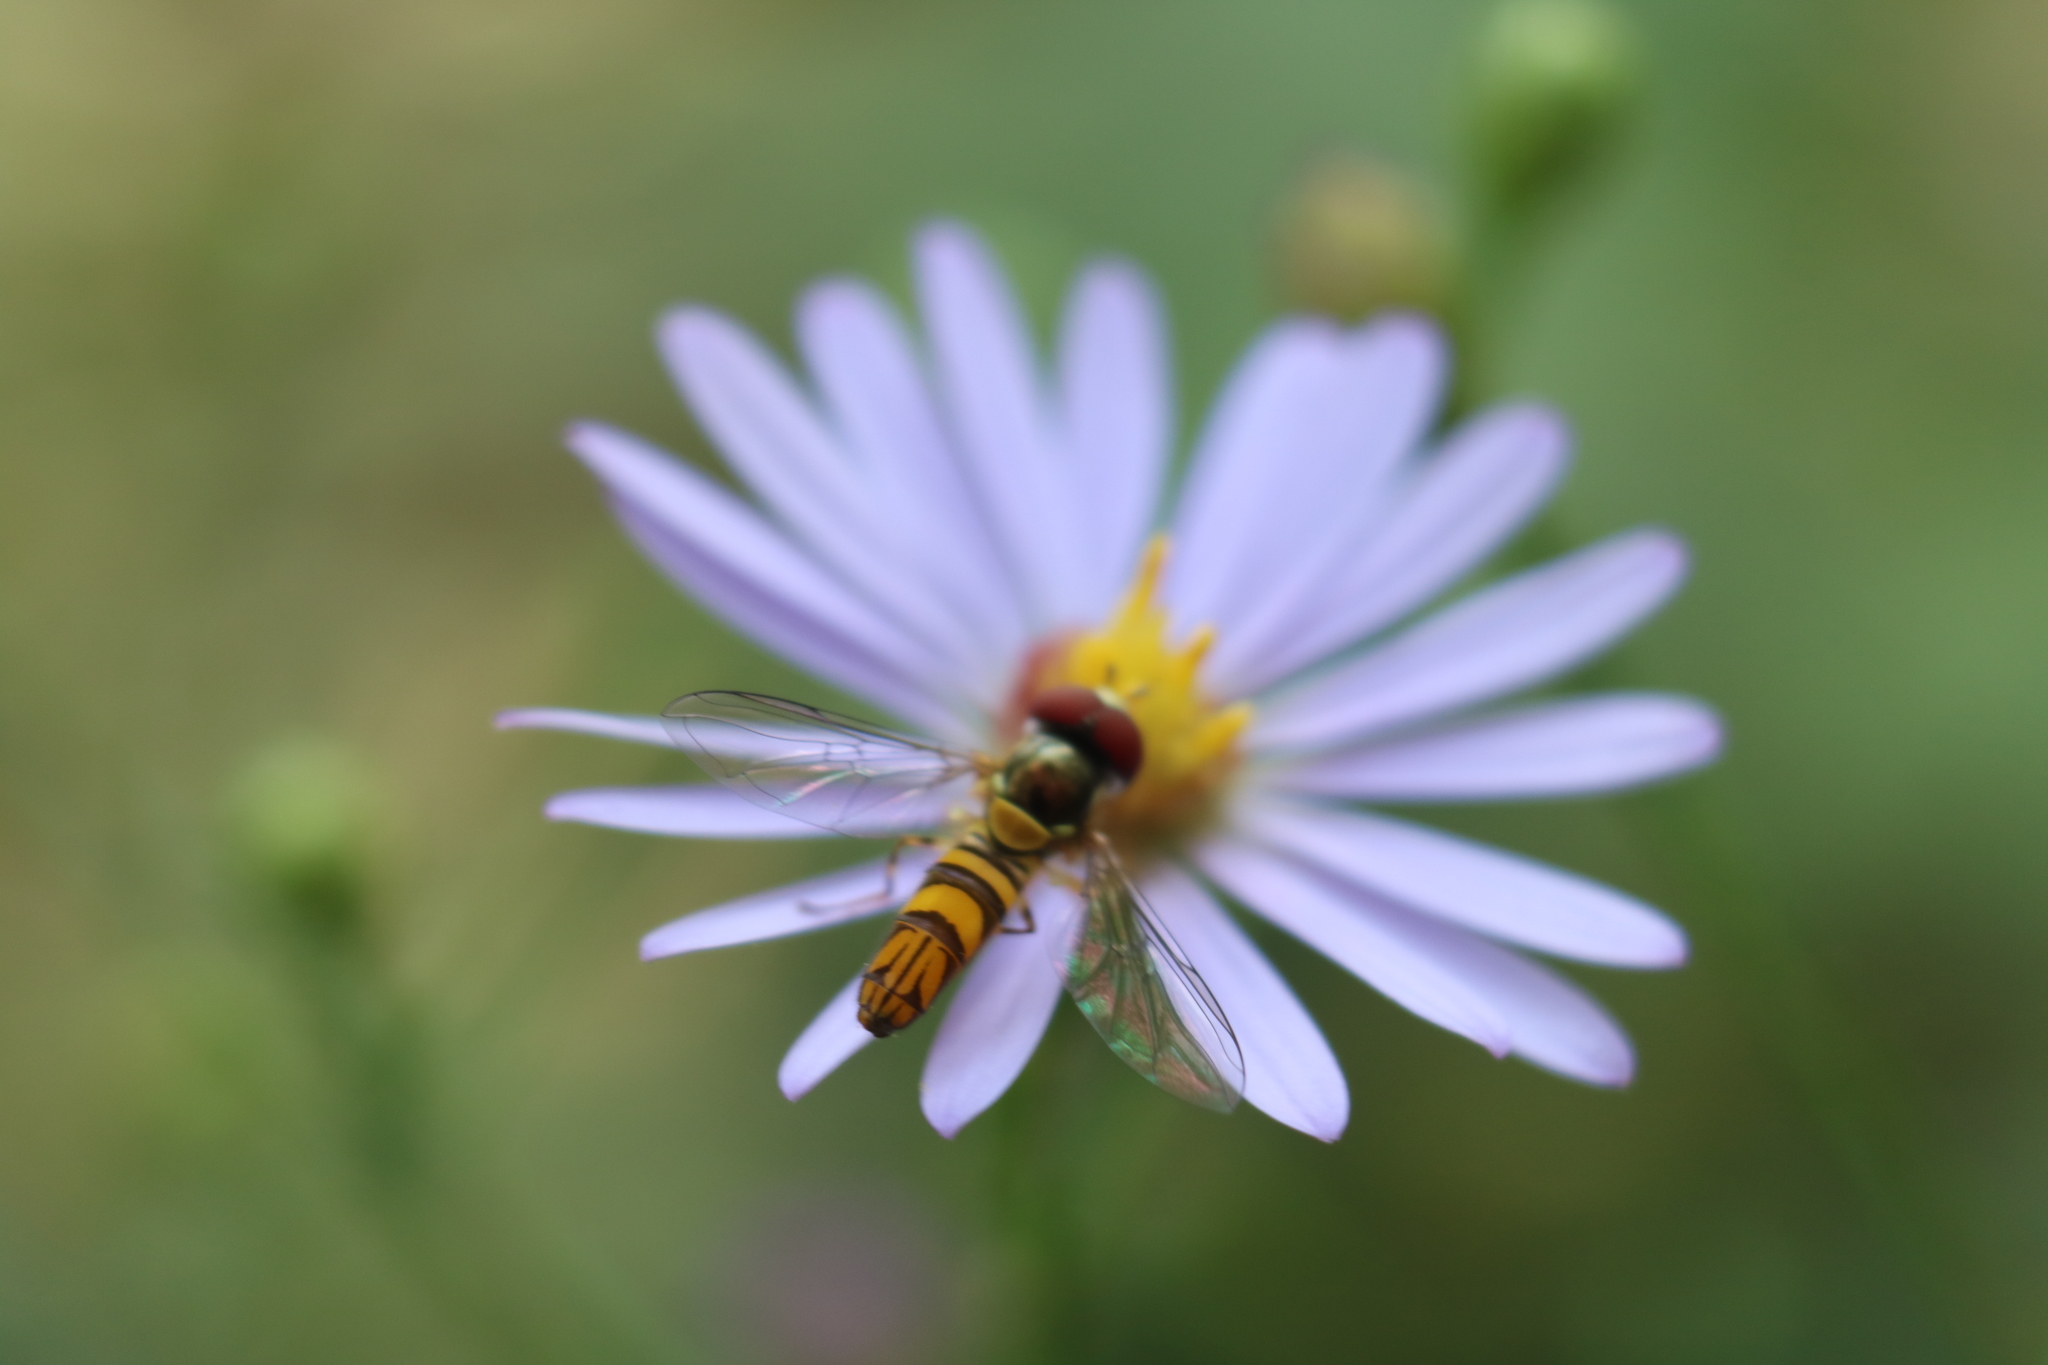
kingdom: Animalia
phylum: Arthropoda
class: Insecta
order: Diptera
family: Syrphidae
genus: Allograpta
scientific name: Allograpta obliqua
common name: Common oblique syrphid
